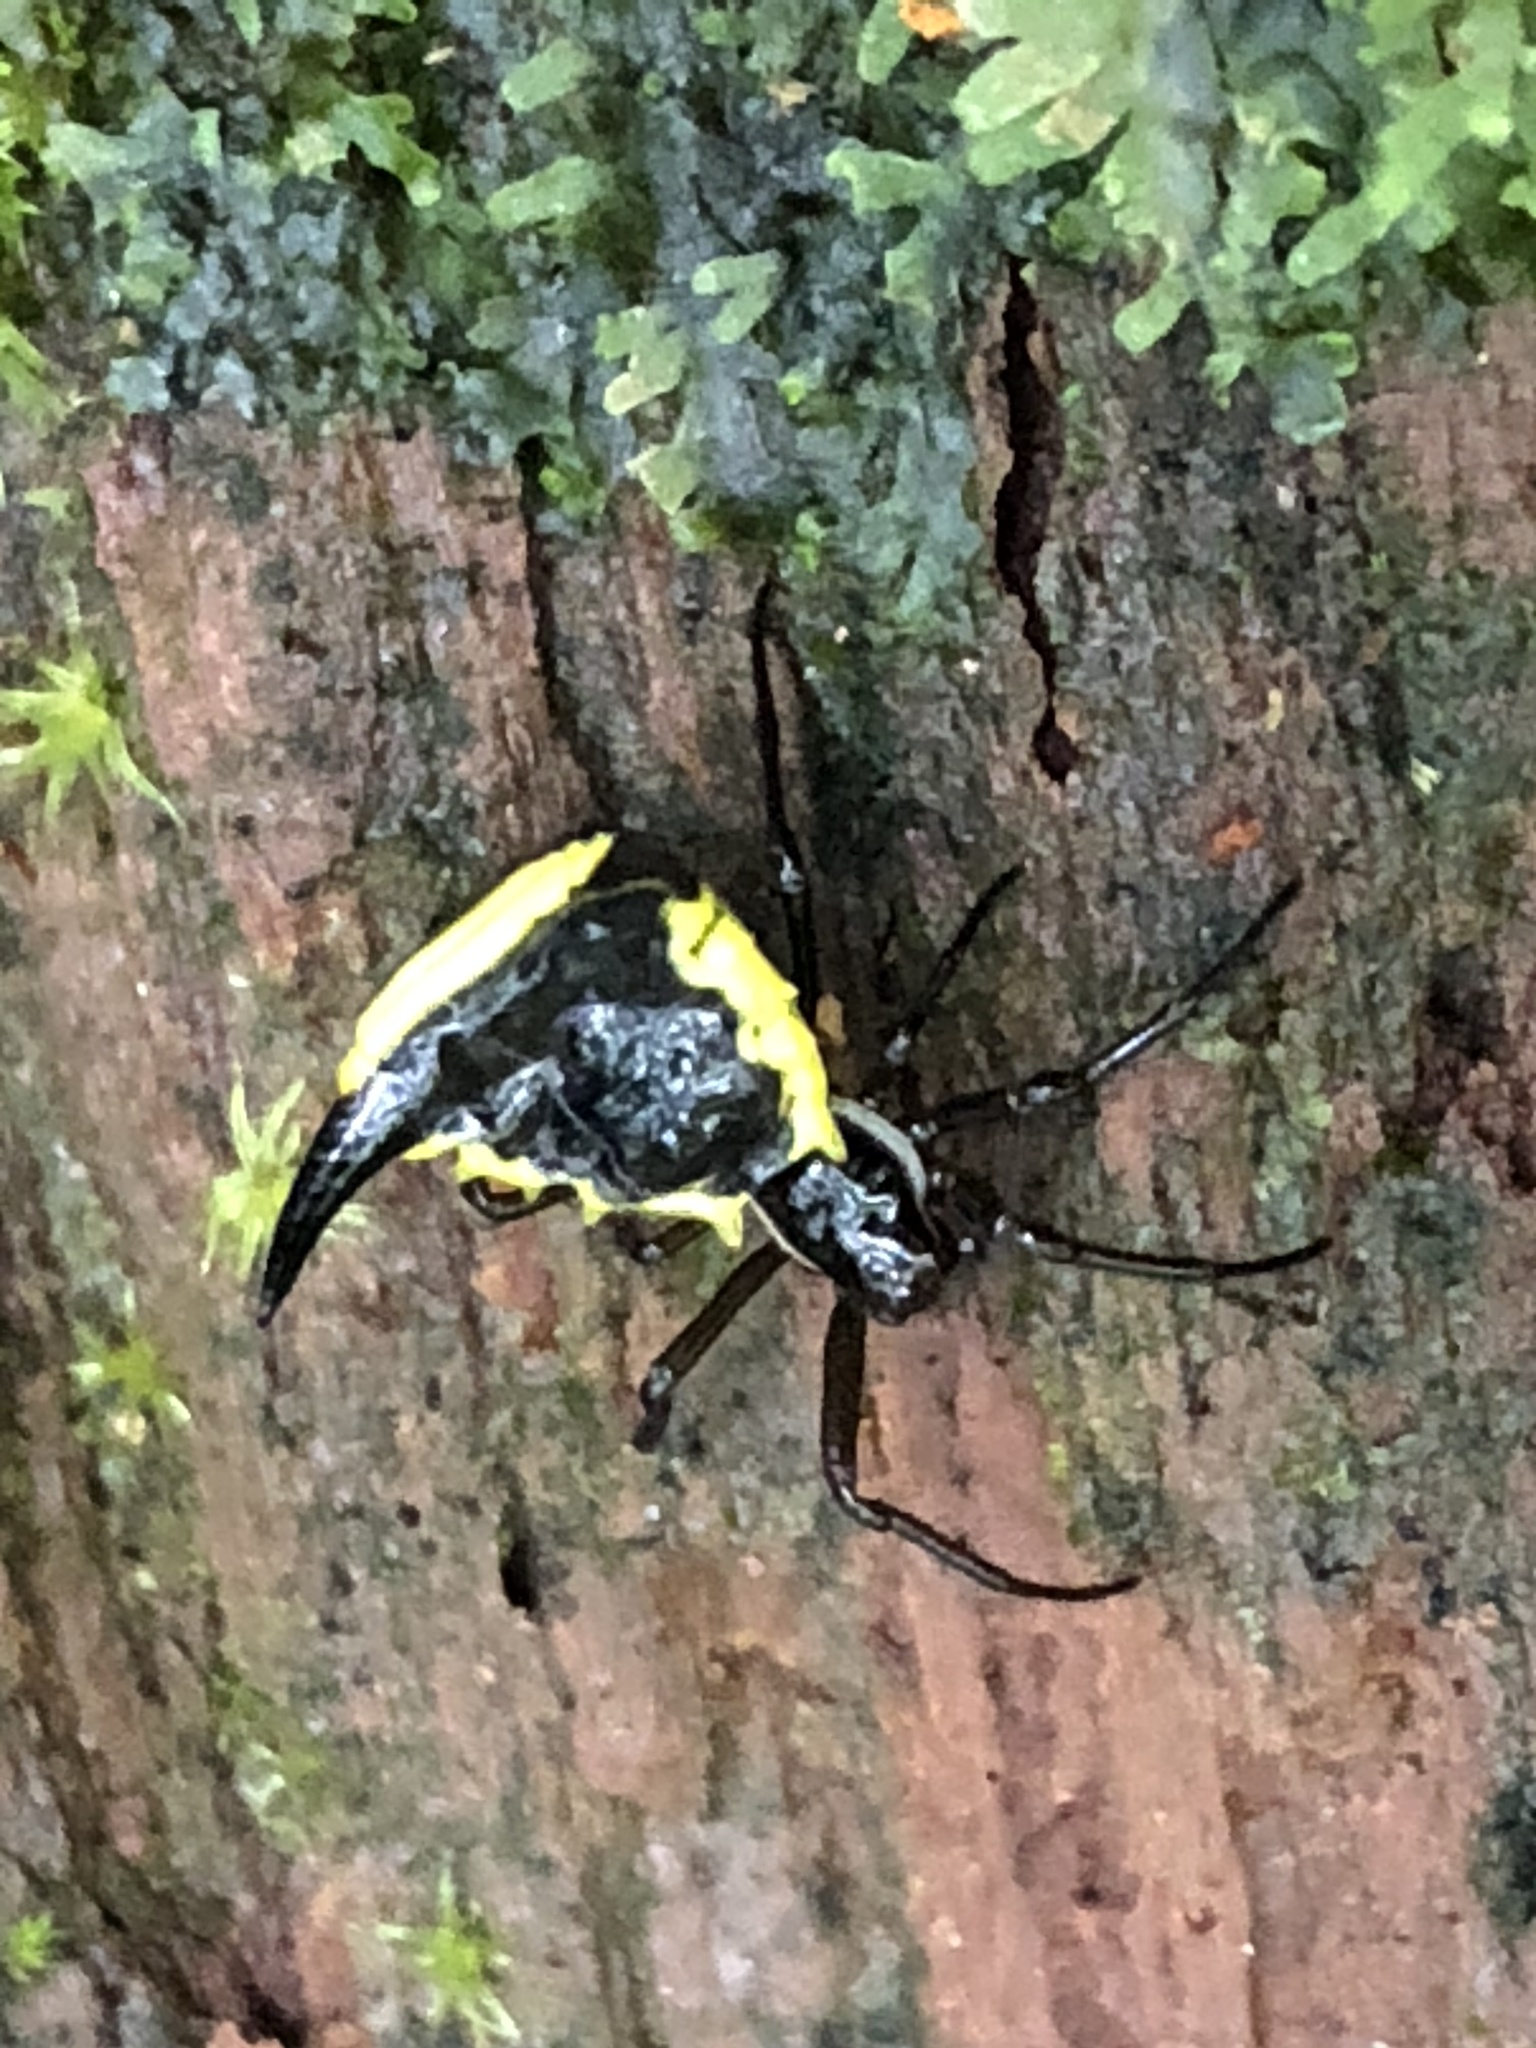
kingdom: Animalia
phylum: Arthropoda
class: Arachnida
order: Araneae
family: Araneidae
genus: Micrathena
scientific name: Micrathena pungens
